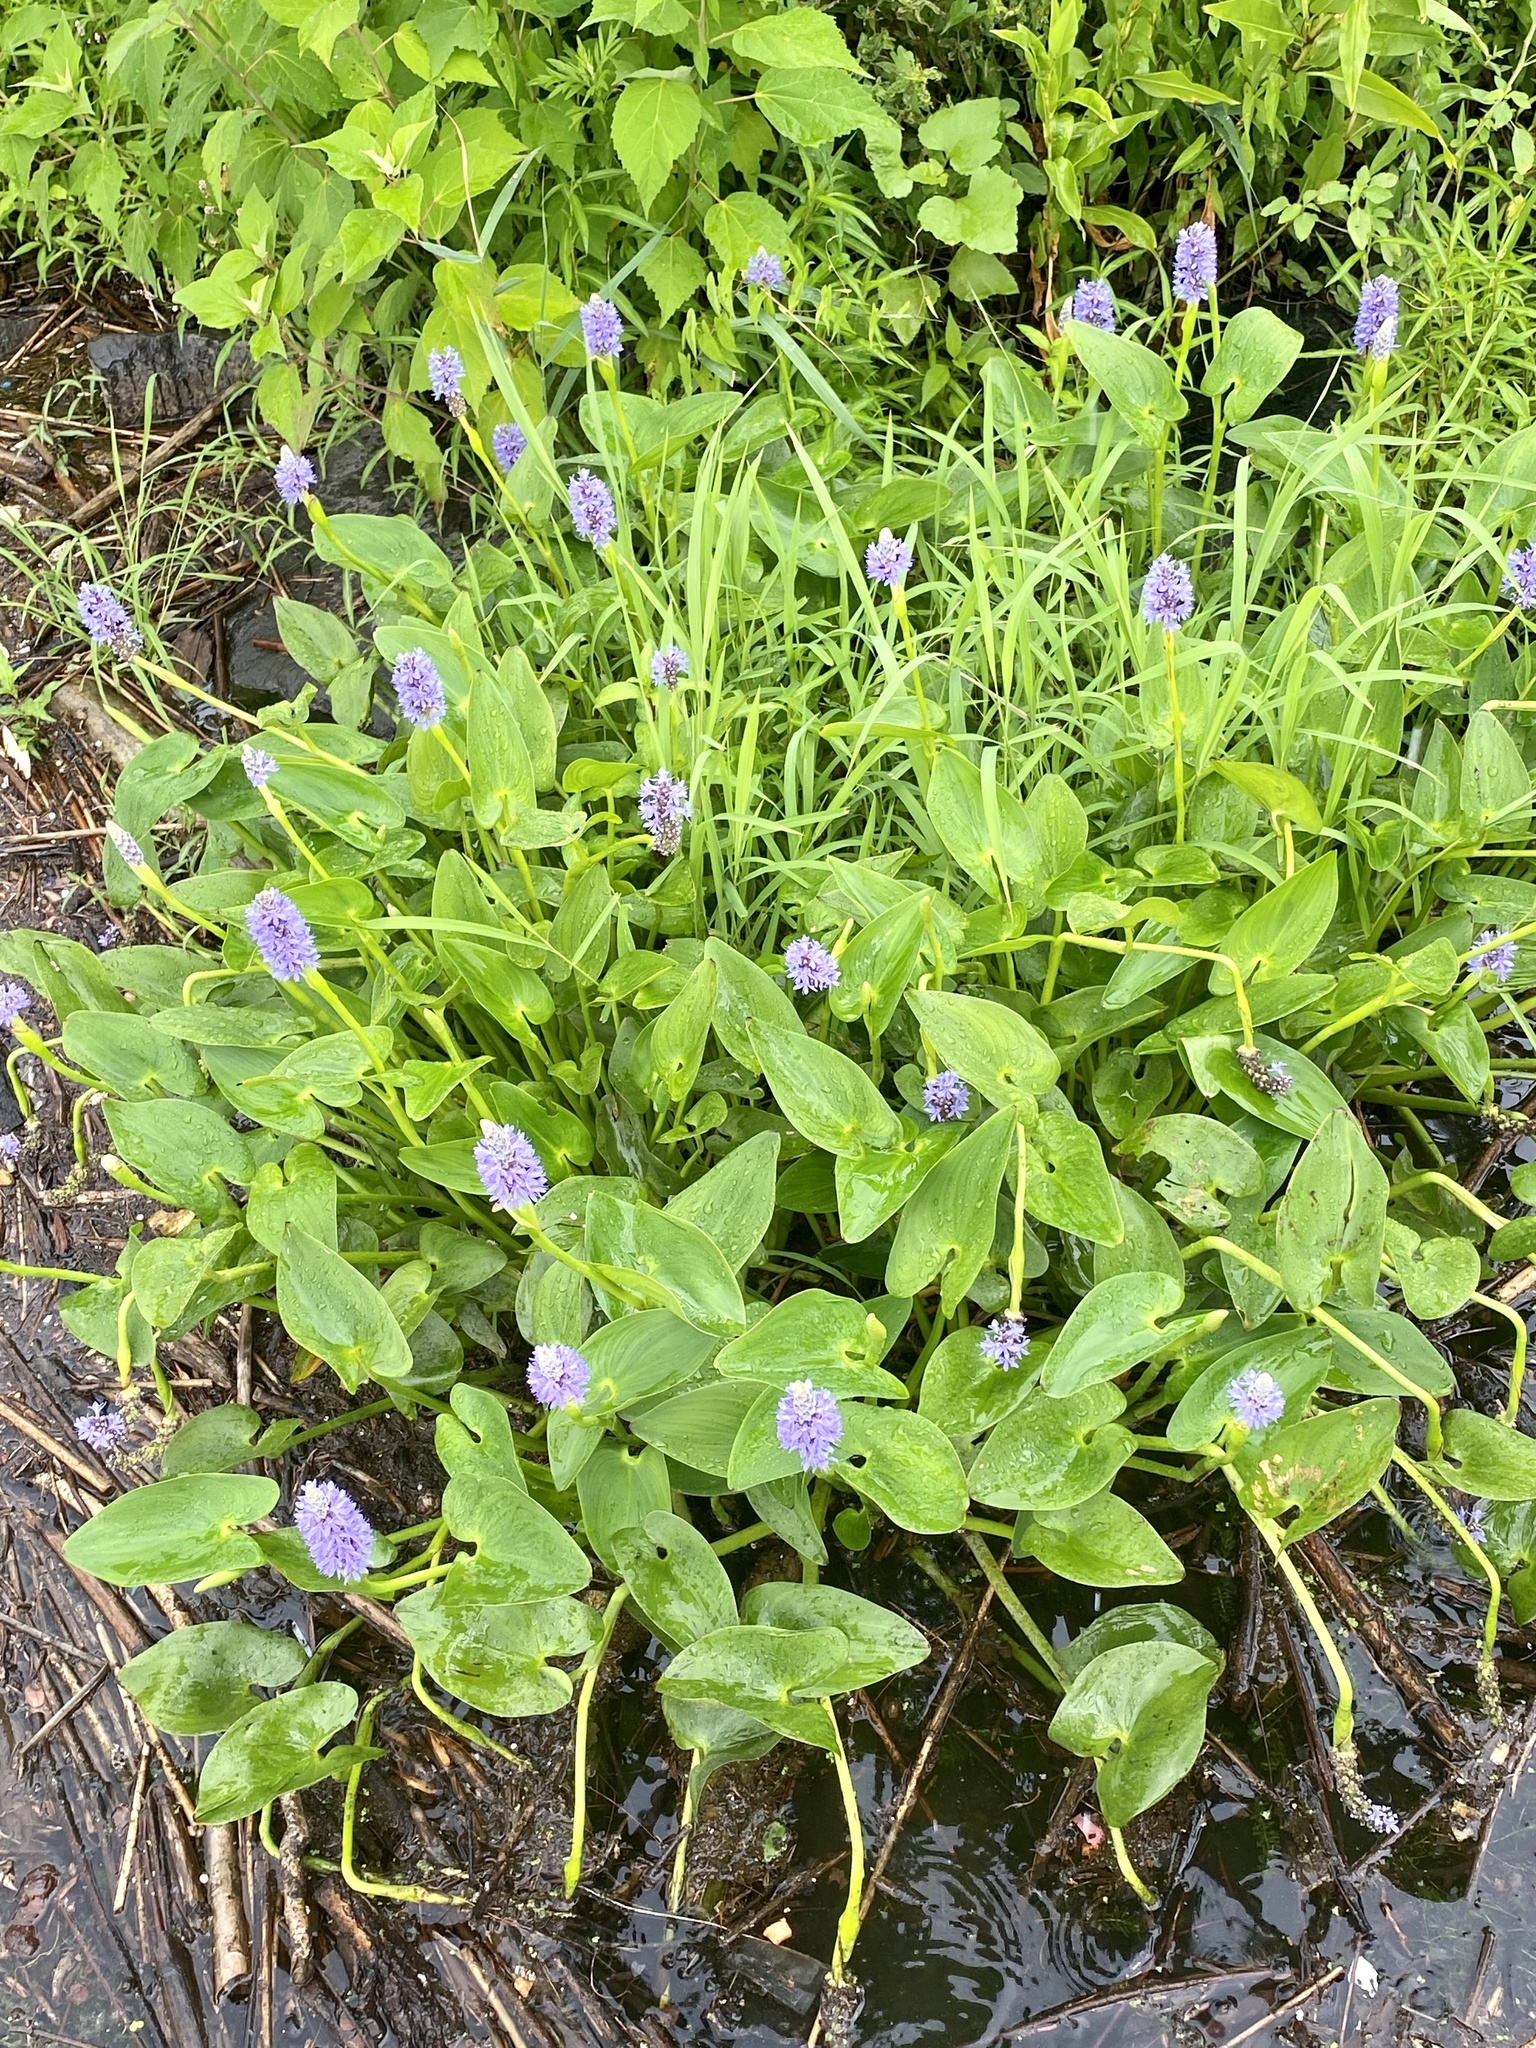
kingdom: Plantae
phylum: Tracheophyta
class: Liliopsida
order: Commelinales
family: Pontederiaceae
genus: Pontederia
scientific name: Pontederia cordata
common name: Pickerelweed
